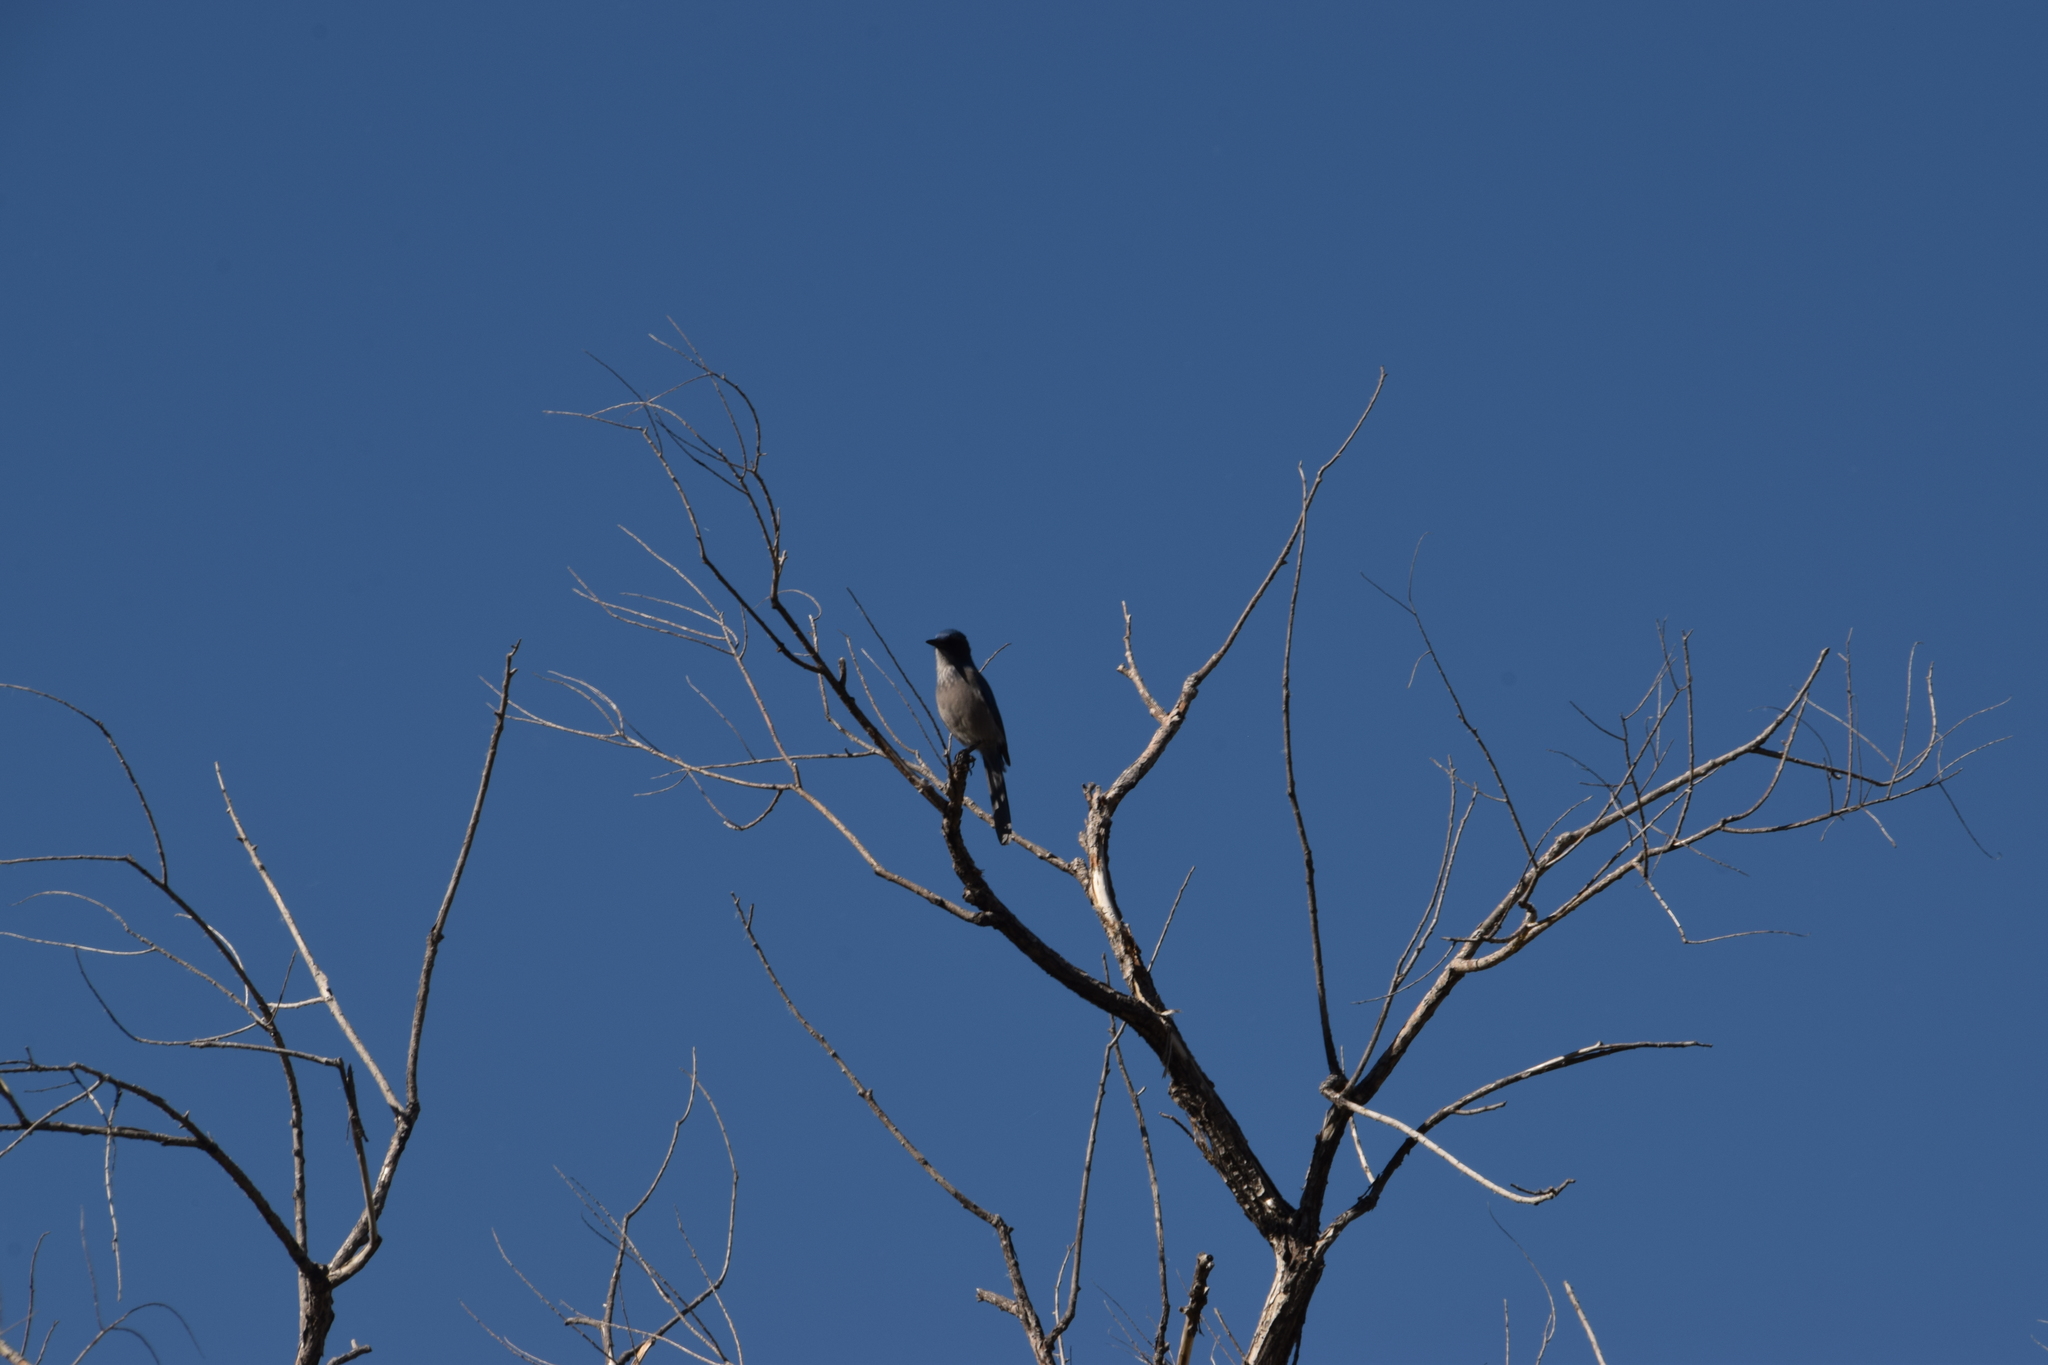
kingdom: Animalia
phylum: Chordata
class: Aves
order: Passeriformes
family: Corvidae
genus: Aphelocoma
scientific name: Aphelocoma woodhouseii
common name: Woodhouse's scrub-jay
